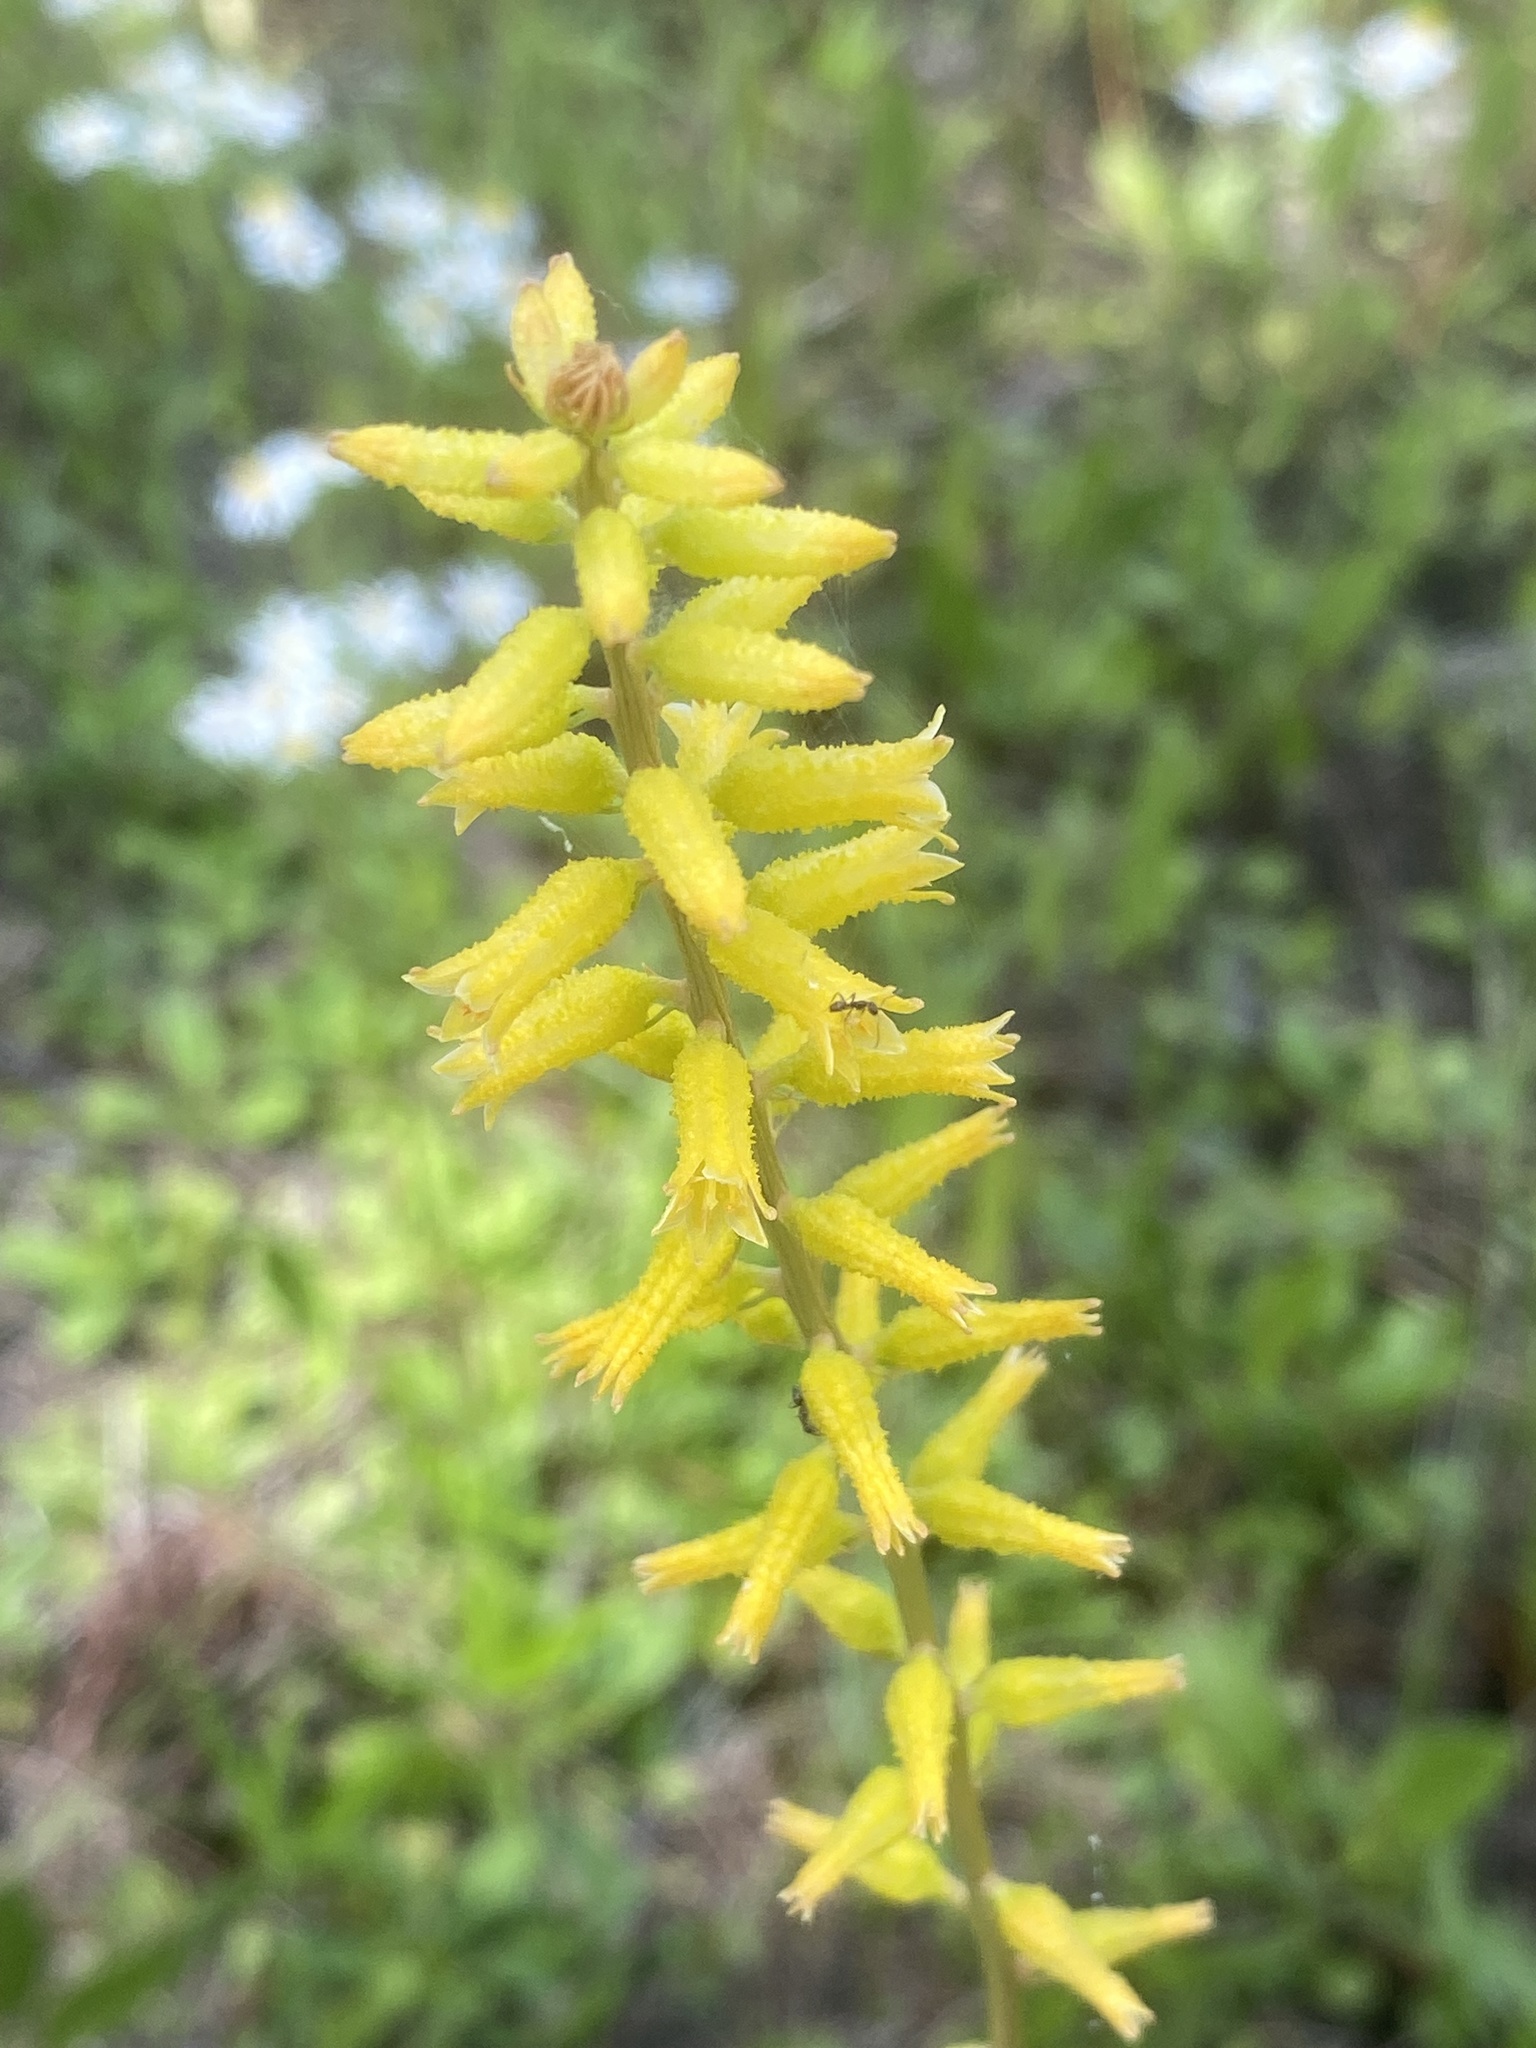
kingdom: Plantae
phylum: Tracheophyta
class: Liliopsida
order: Dioscoreales
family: Nartheciaceae
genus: Aletris
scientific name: Aletris lutea
